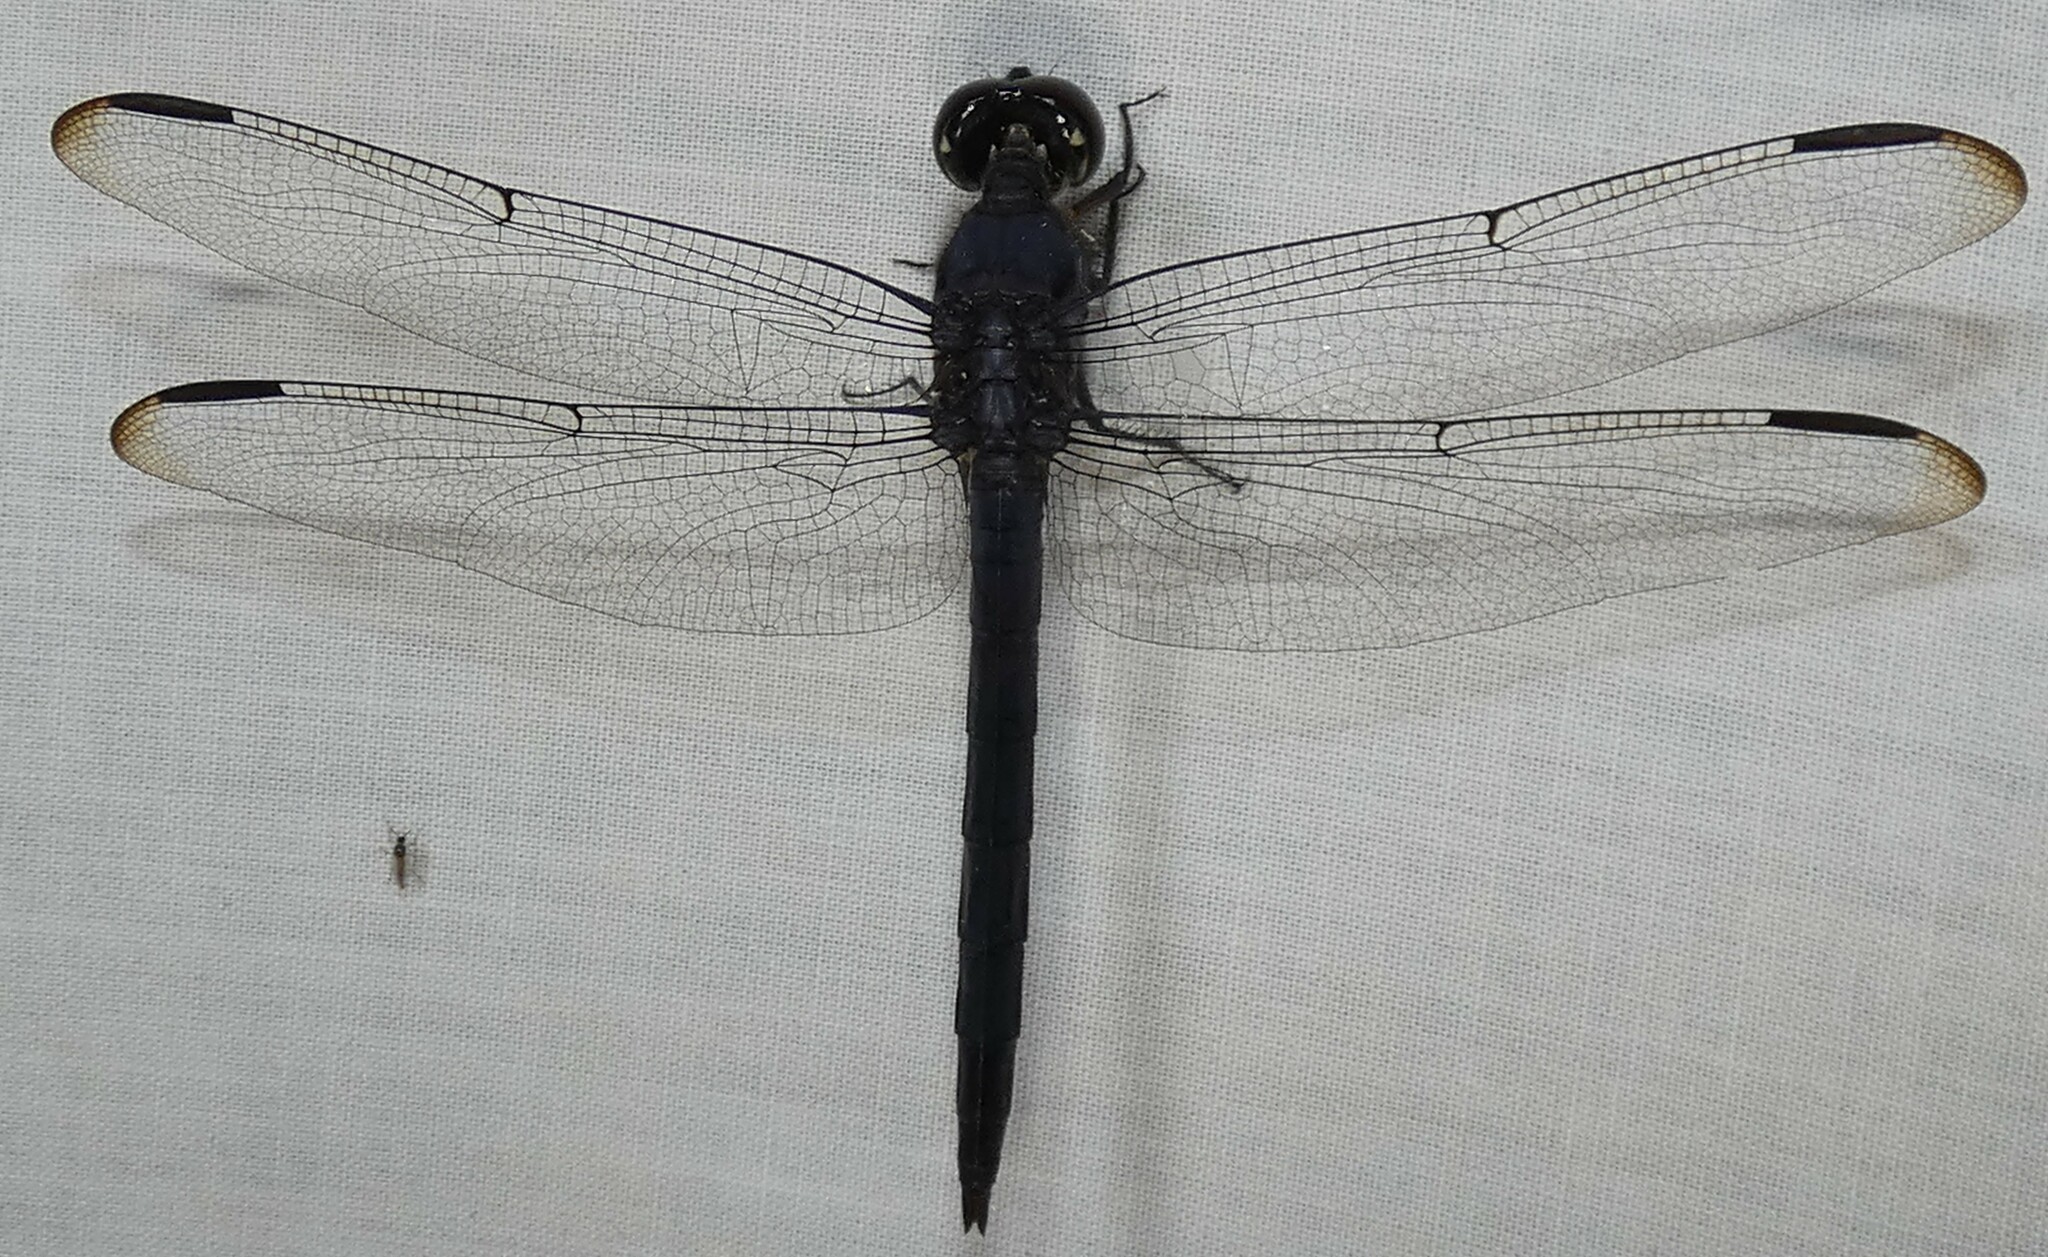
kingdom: Animalia
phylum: Arthropoda
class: Insecta
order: Odonata
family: Libellulidae
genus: Libellula
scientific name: Libellula incesta
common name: Slaty skimmer
